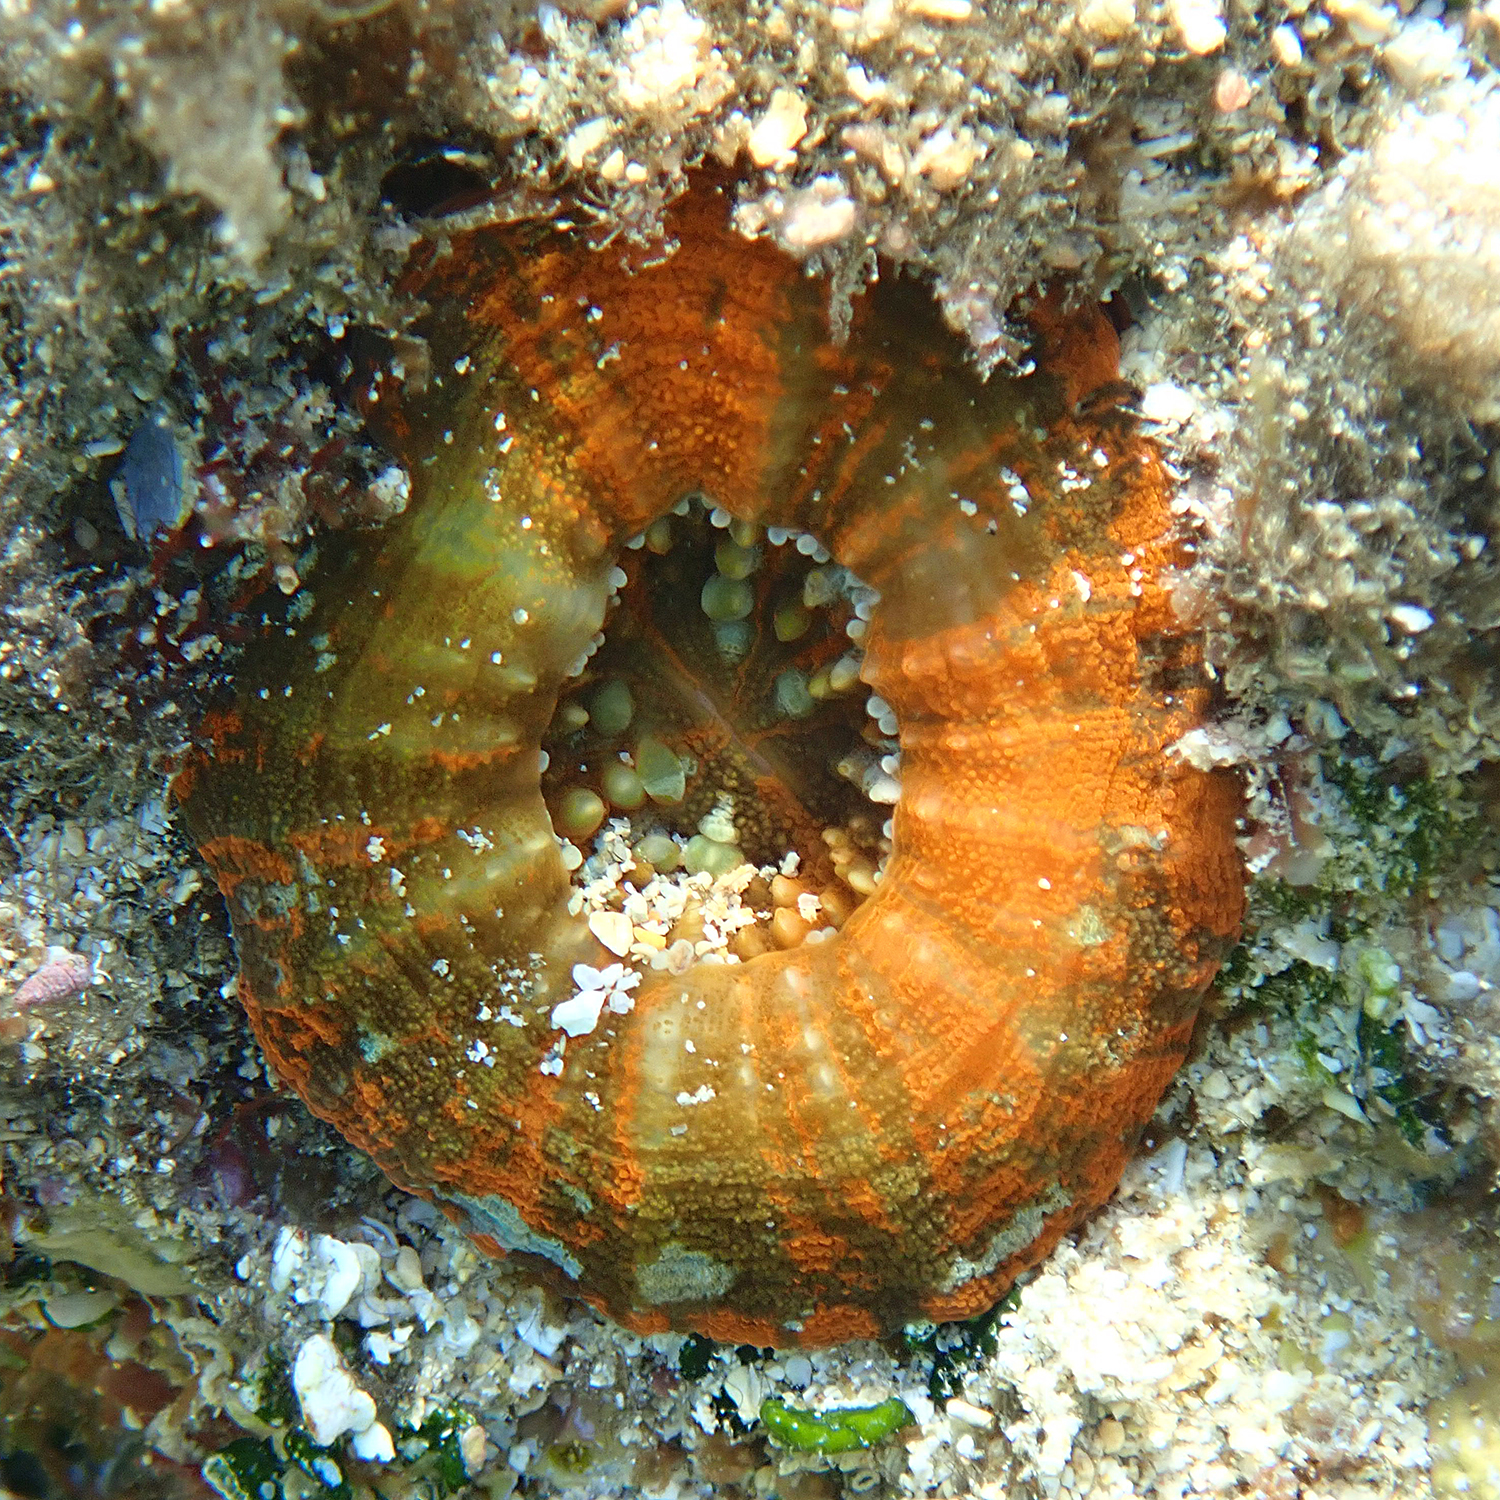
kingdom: Animalia
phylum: Cnidaria
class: Anthozoa
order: Scleractinia
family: Lobophylliidae
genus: Homophyllia
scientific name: Homophyllia australis
